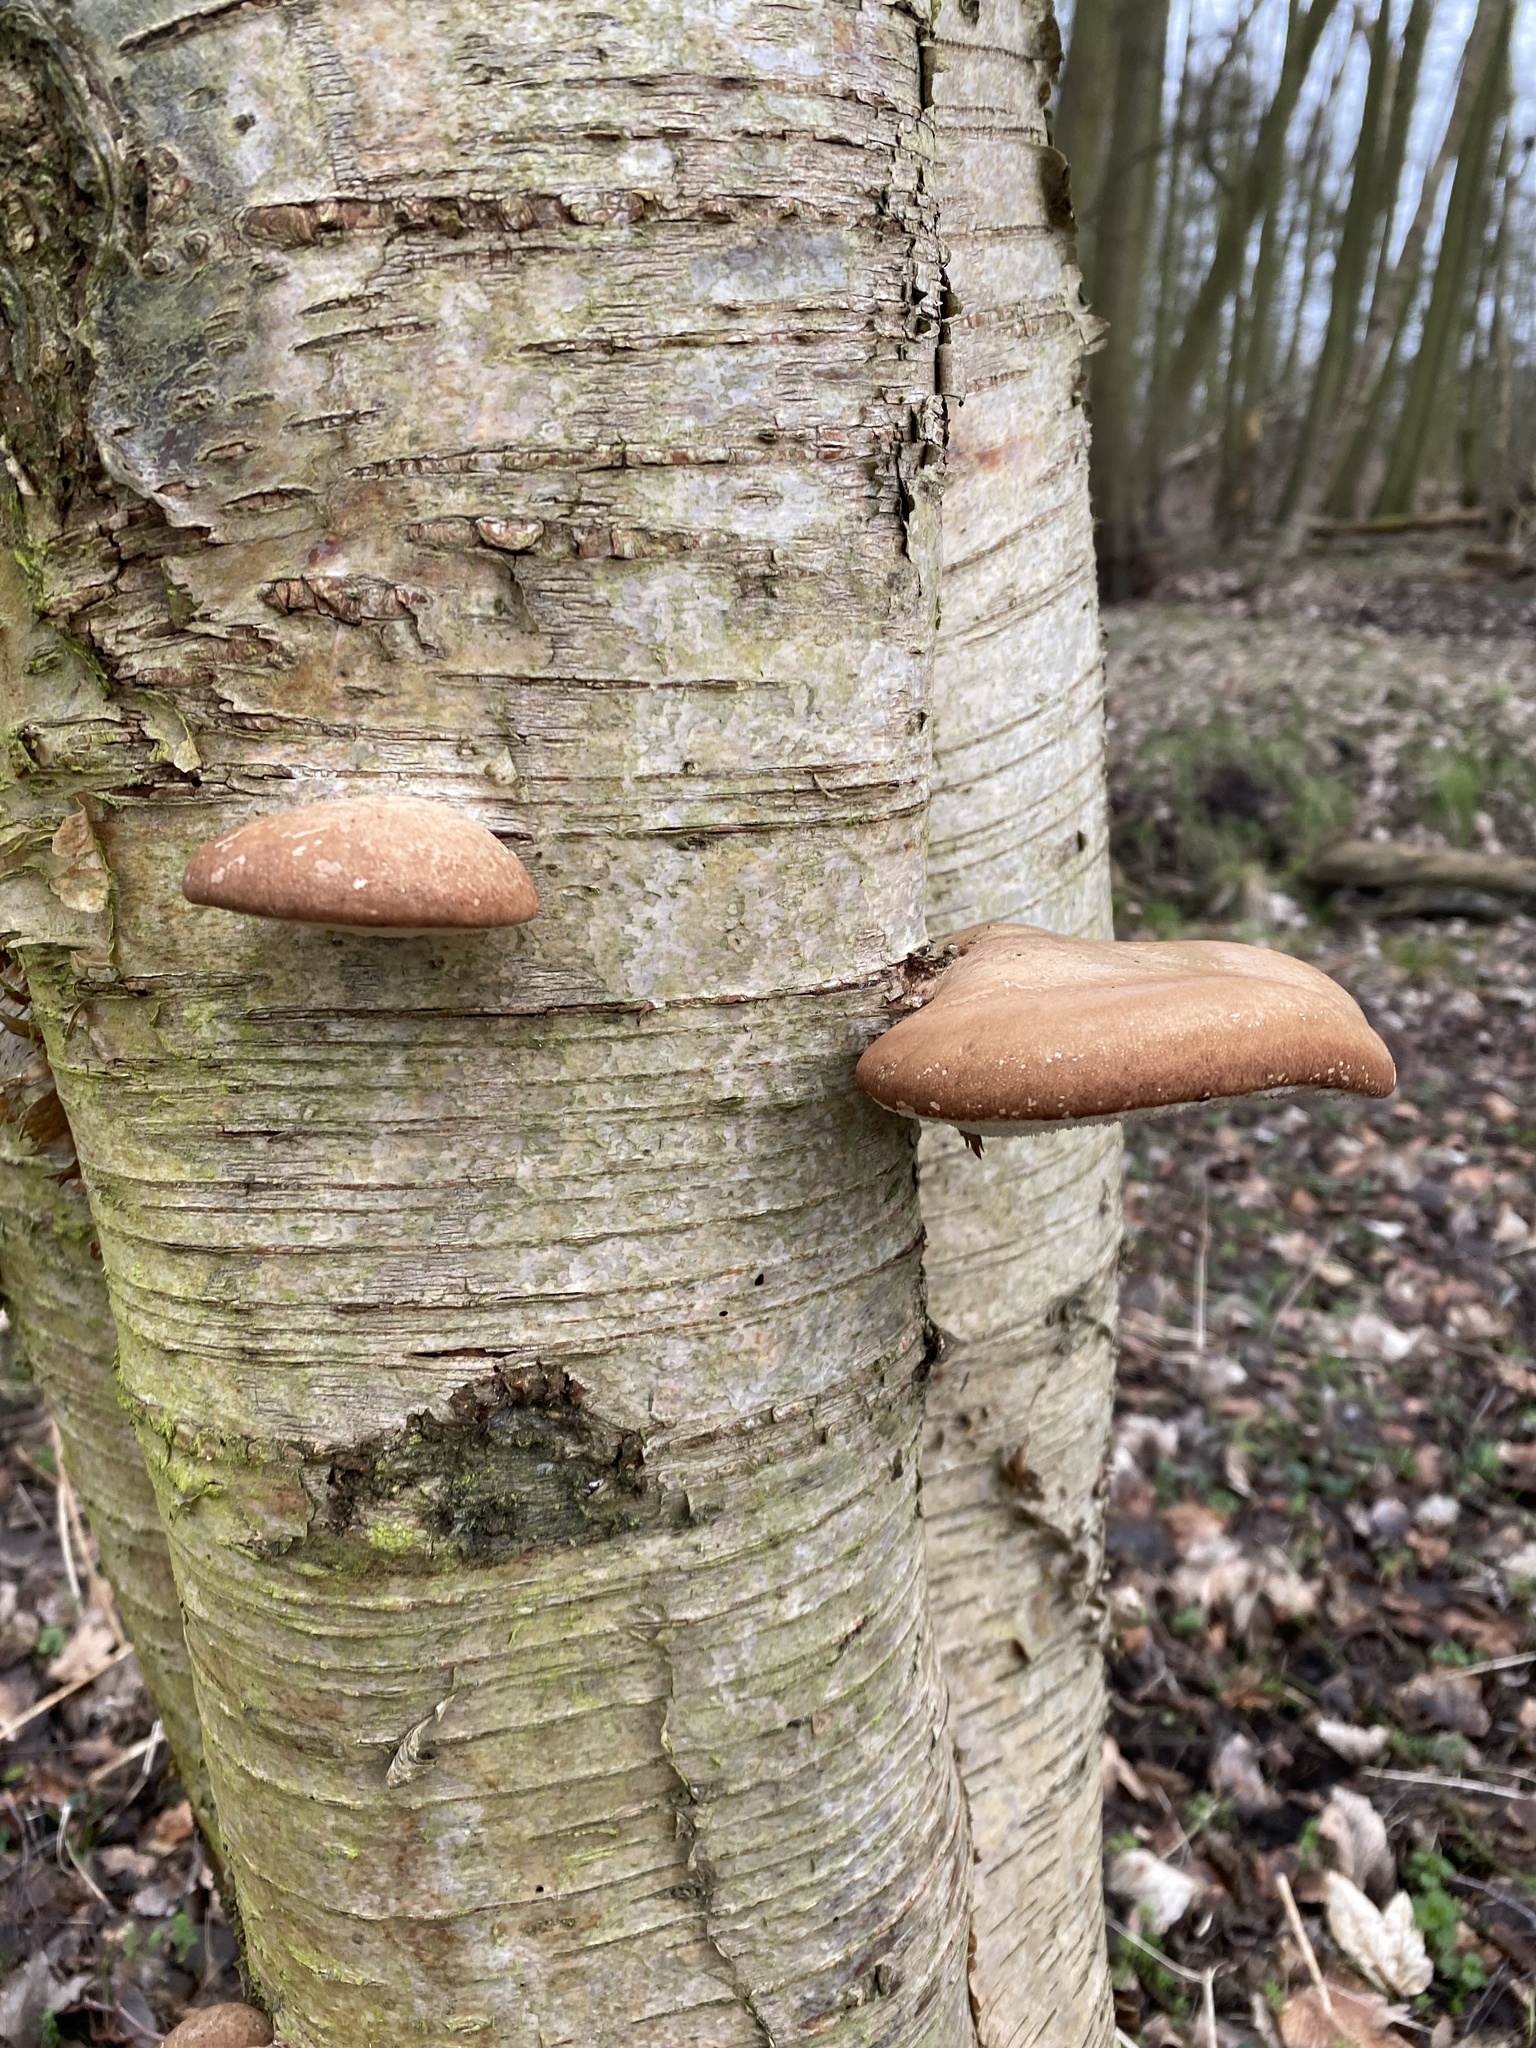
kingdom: Fungi
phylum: Basidiomycota
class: Agaricomycetes
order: Polyporales
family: Fomitopsidaceae
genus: Fomitopsis
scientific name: Fomitopsis betulina
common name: Birch polypore
